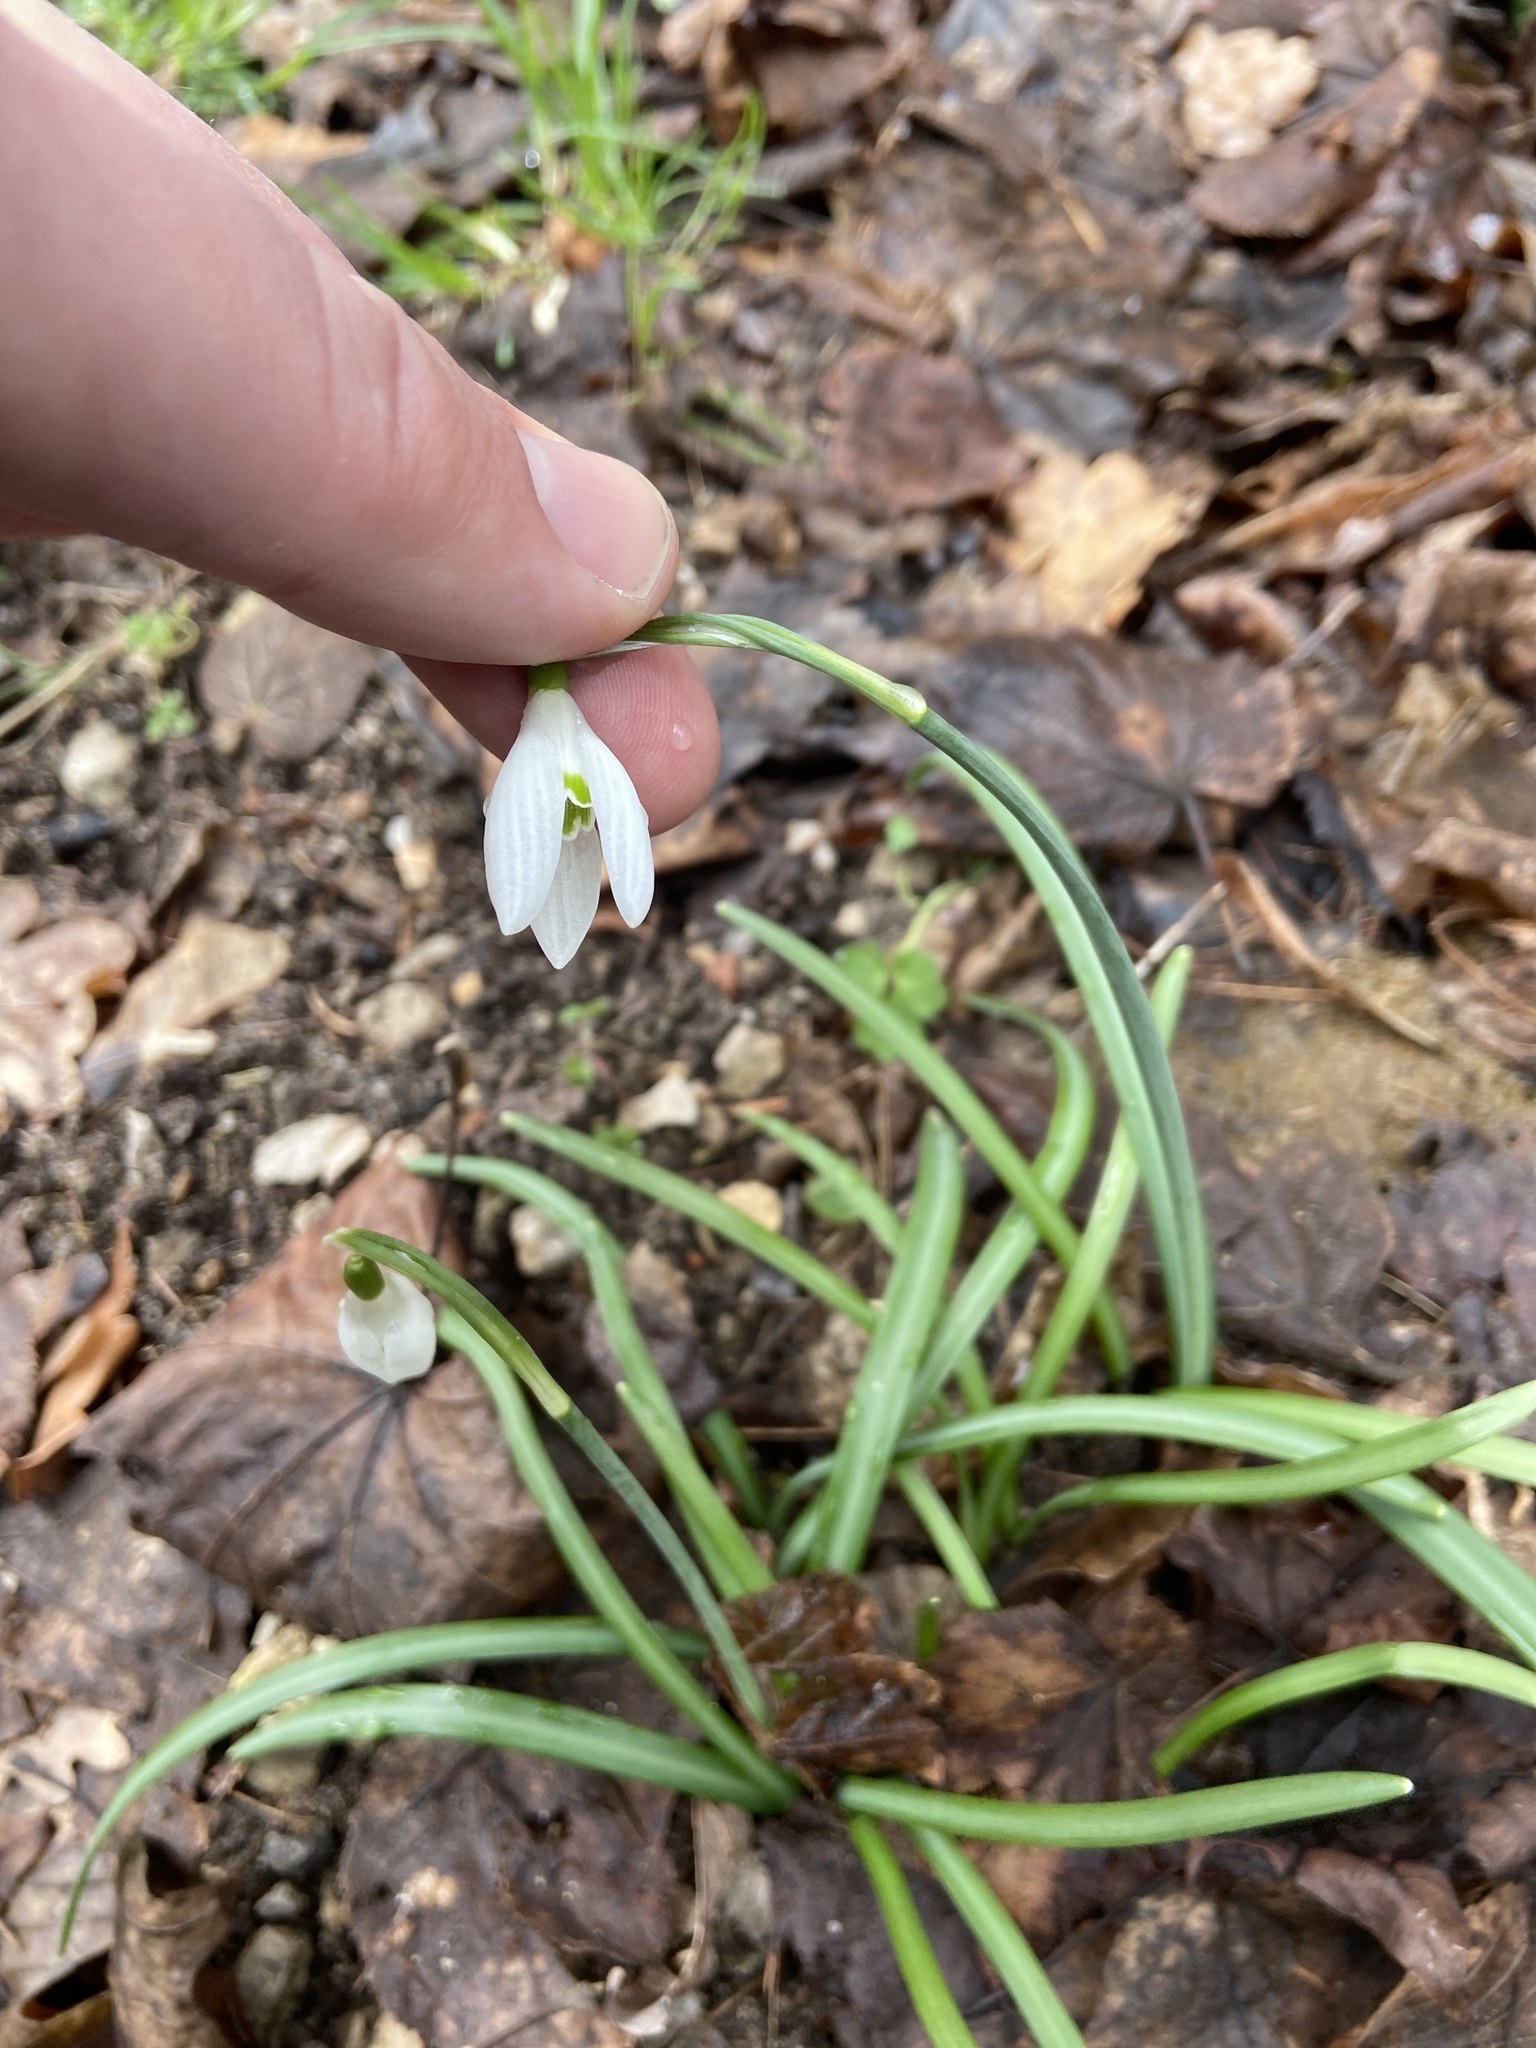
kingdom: Plantae
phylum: Tracheophyta
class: Liliopsida
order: Asparagales
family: Amaryllidaceae
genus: Galanthus
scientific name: Galanthus nivalis
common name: Snowdrop
